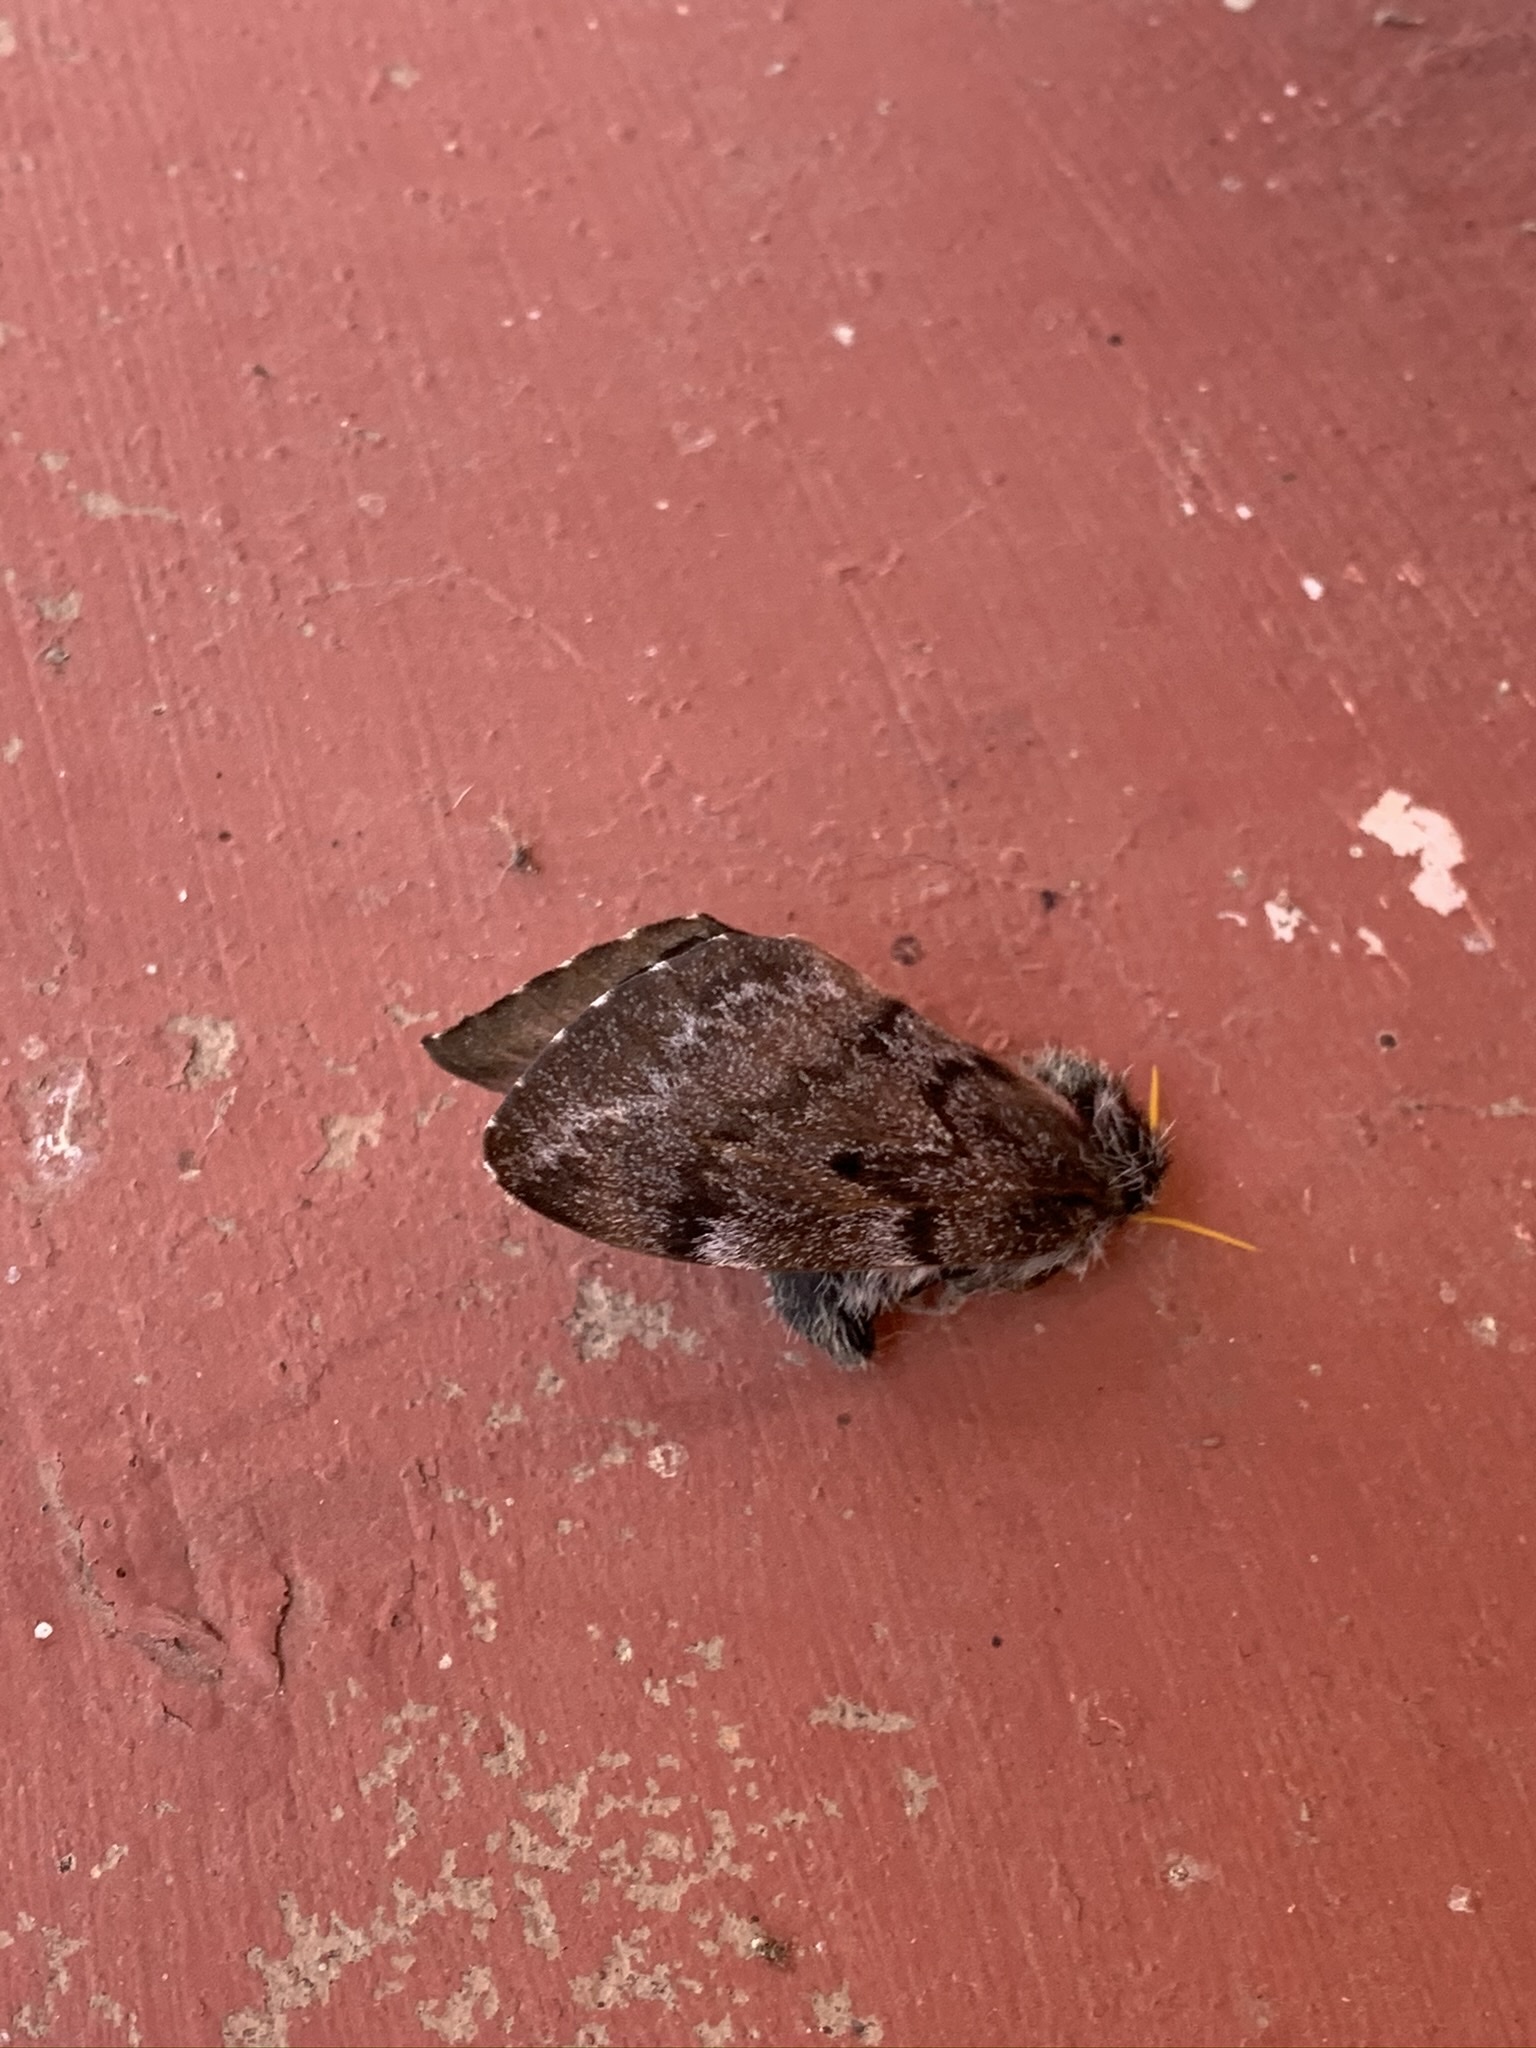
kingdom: Animalia
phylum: Arthropoda
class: Insecta
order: Lepidoptera
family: Saturniidae
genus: Coloradia
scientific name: Coloradia pandora
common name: Pandora pinemoth
